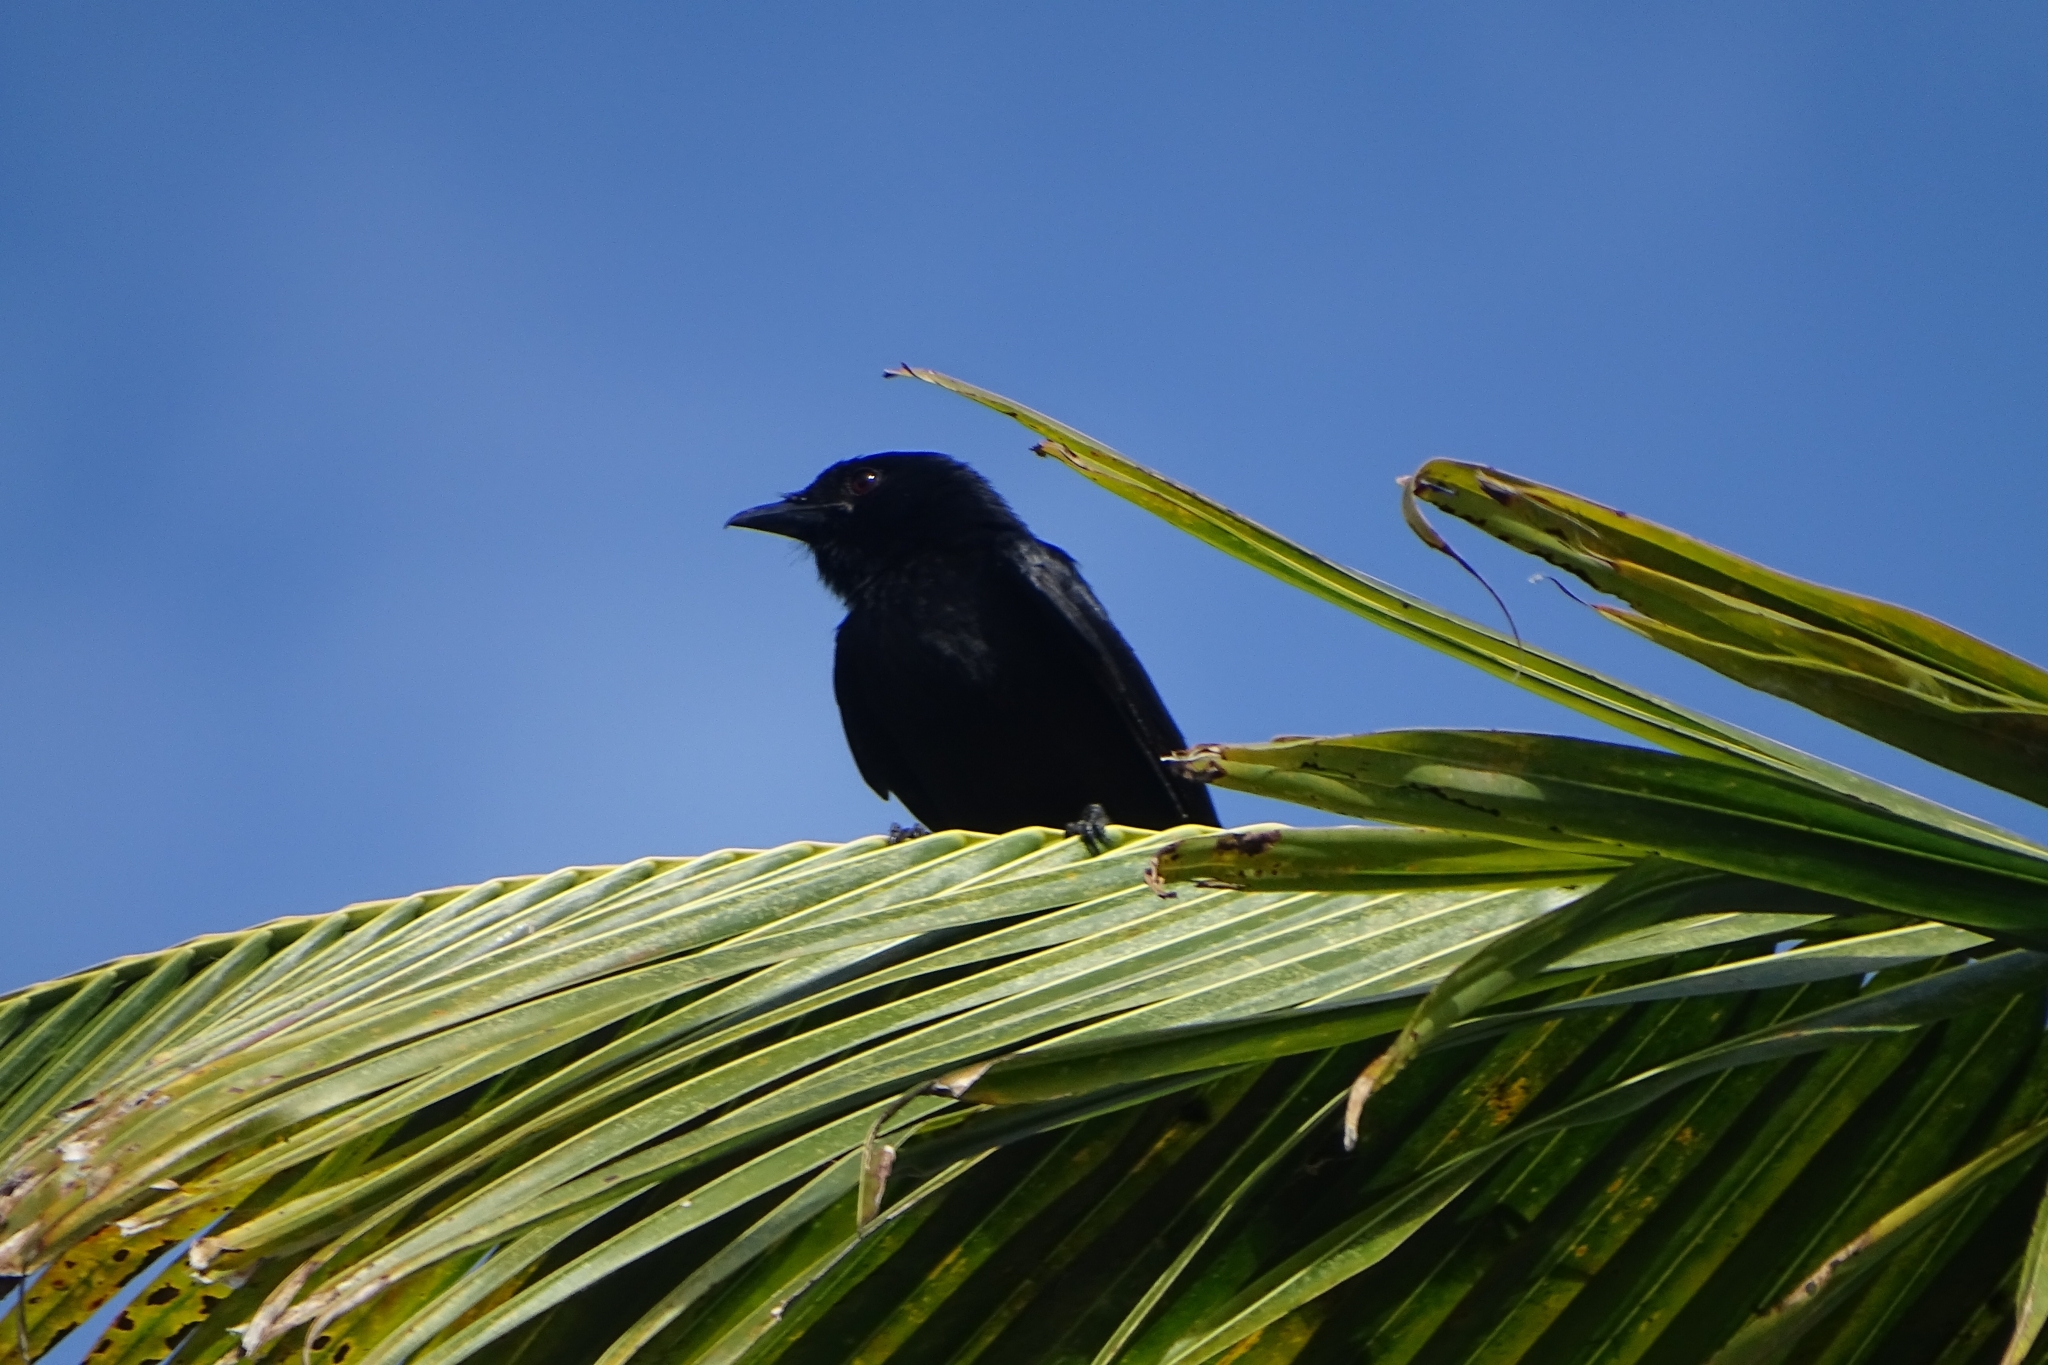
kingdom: Animalia
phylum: Chordata
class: Aves
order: Passeriformes
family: Dicruridae
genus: Dicrurus
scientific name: Dicrurus macrocercus
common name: Black drongo
